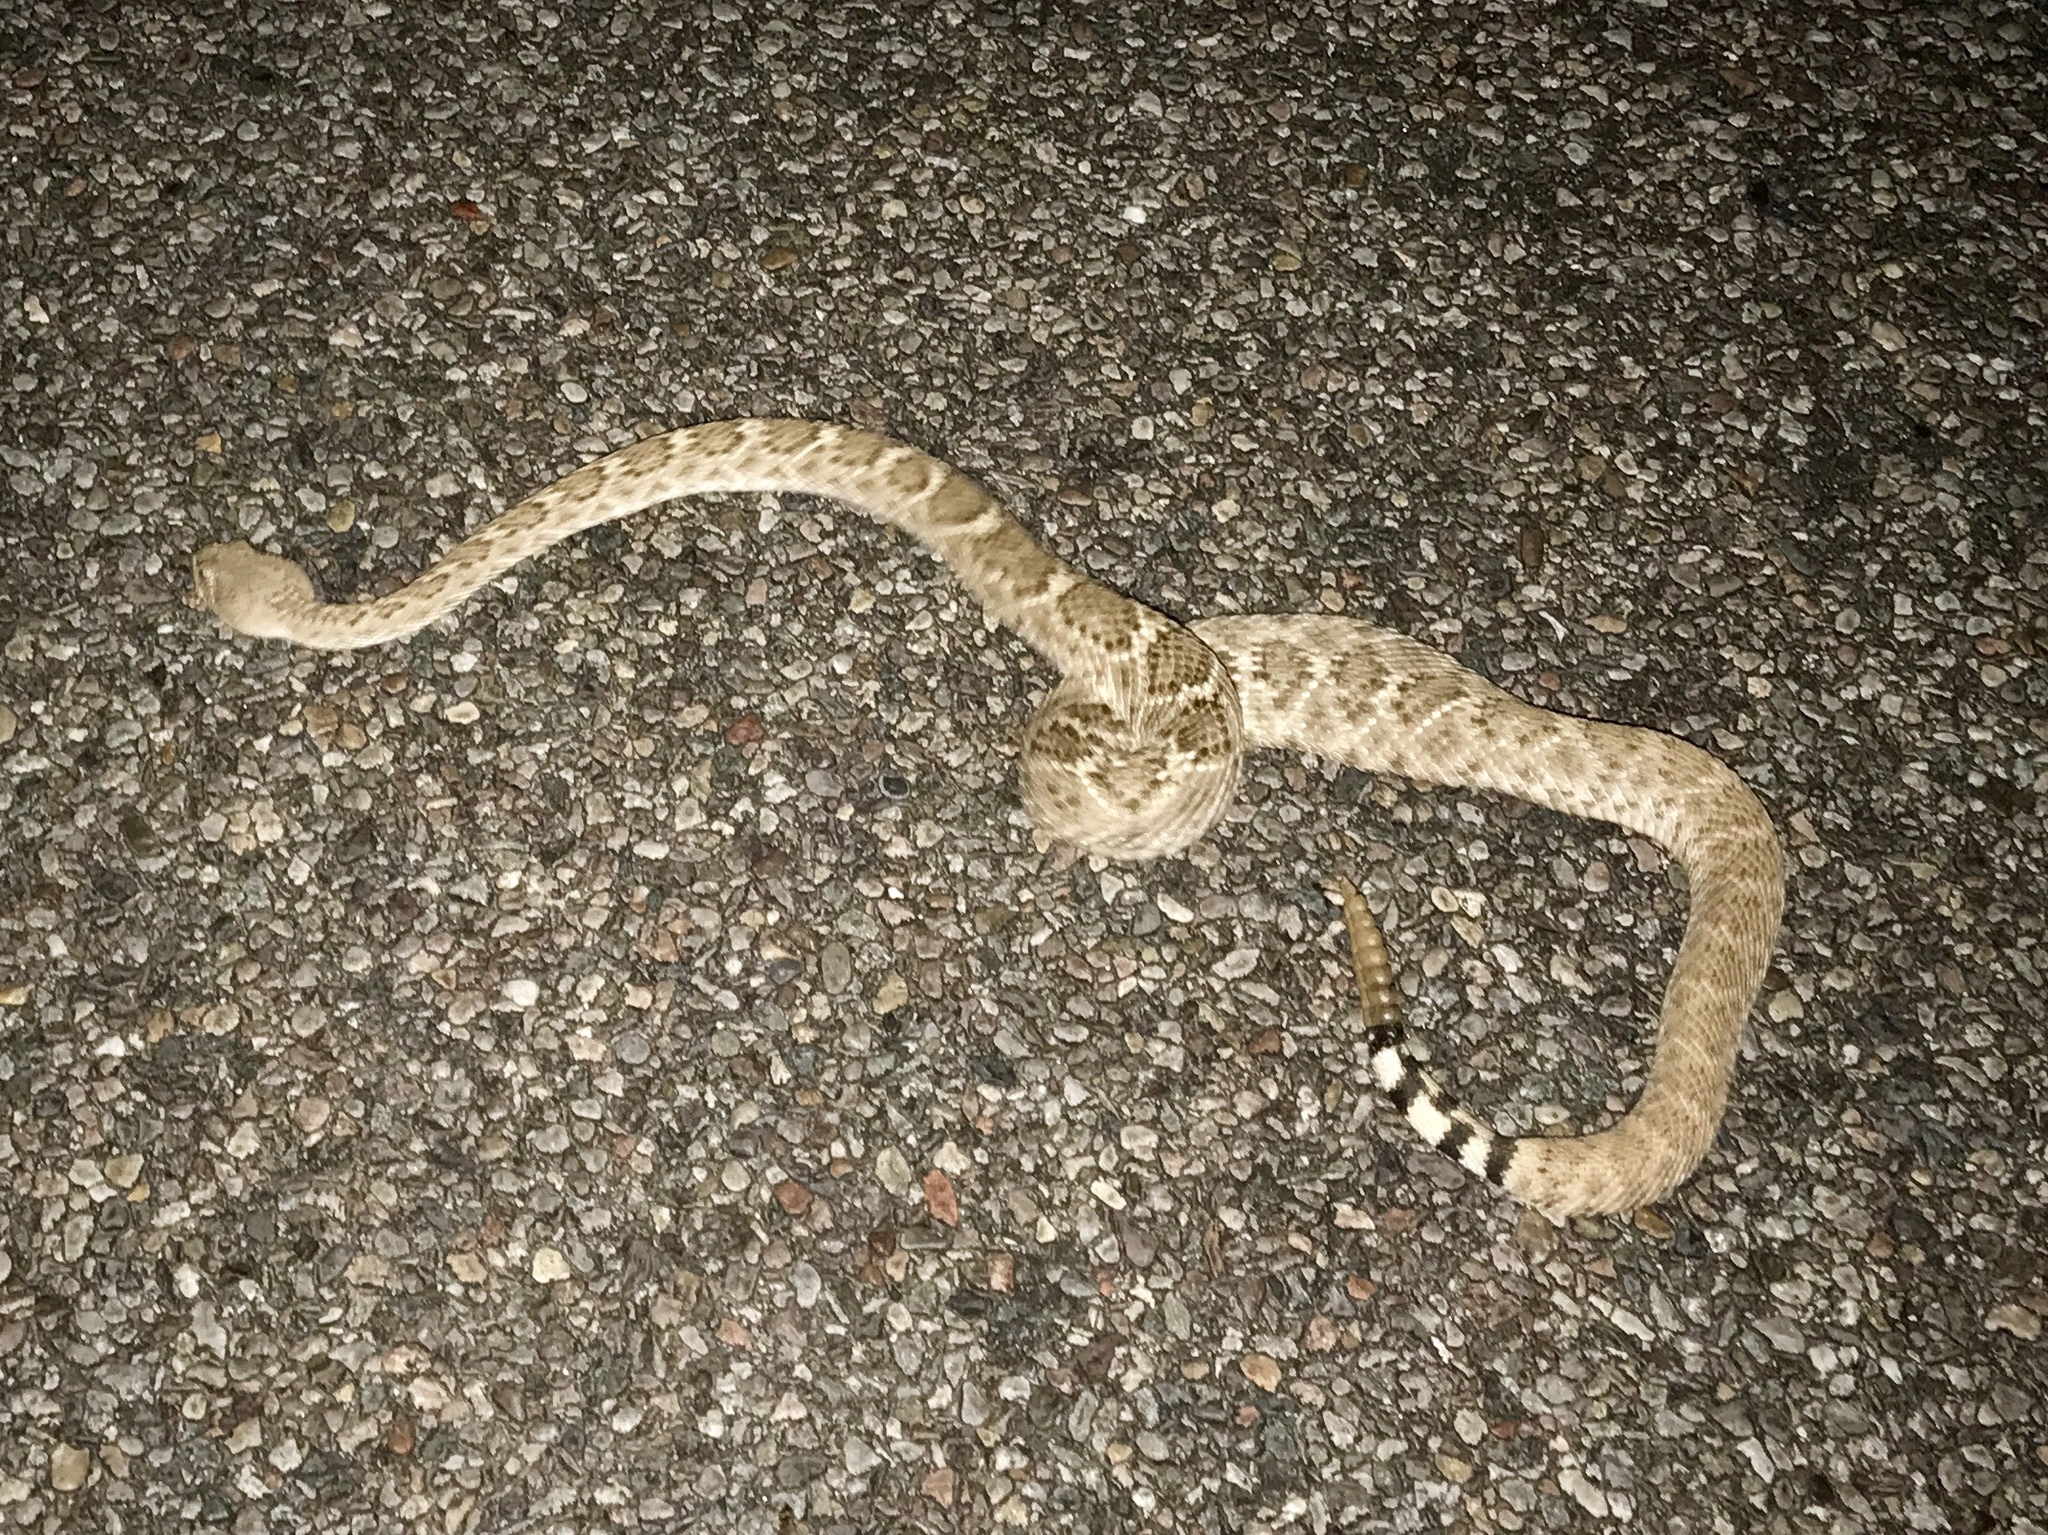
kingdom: Animalia
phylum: Chordata
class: Squamata
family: Viperidae
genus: Crotalus
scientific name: Crotalus atrox
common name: Western diamond-backed rattlesnake
